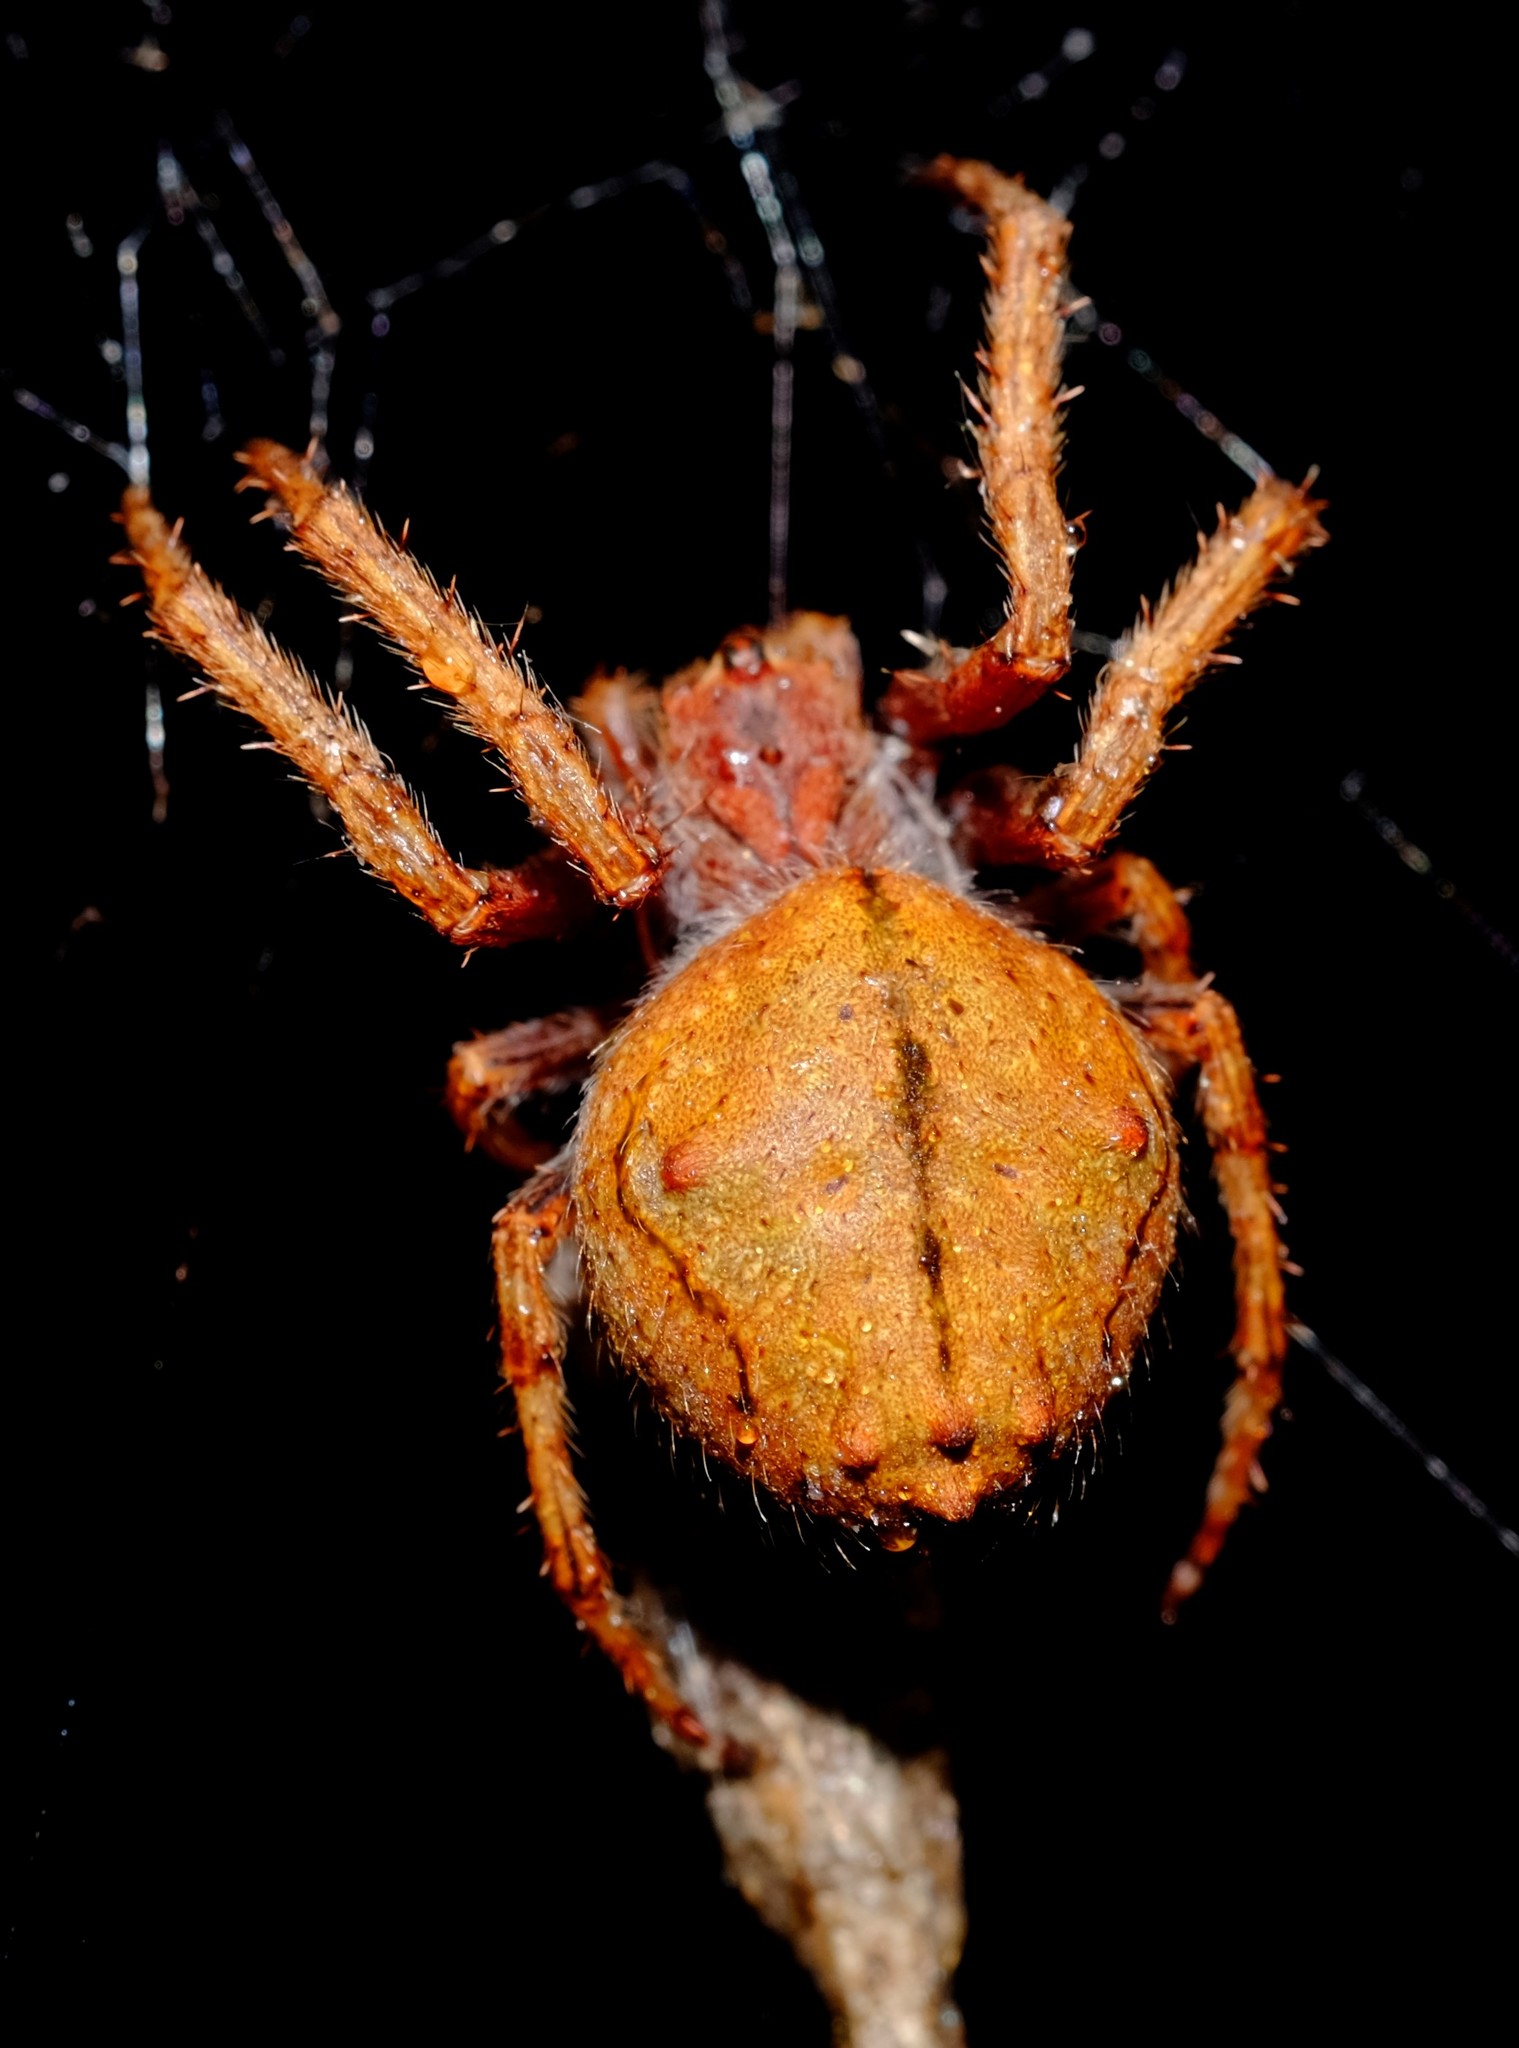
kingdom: Animalia
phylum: Arthropoda
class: Arachnida
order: Araneae
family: Araneidae
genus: Eriophora
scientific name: Eriophora pustulosa
